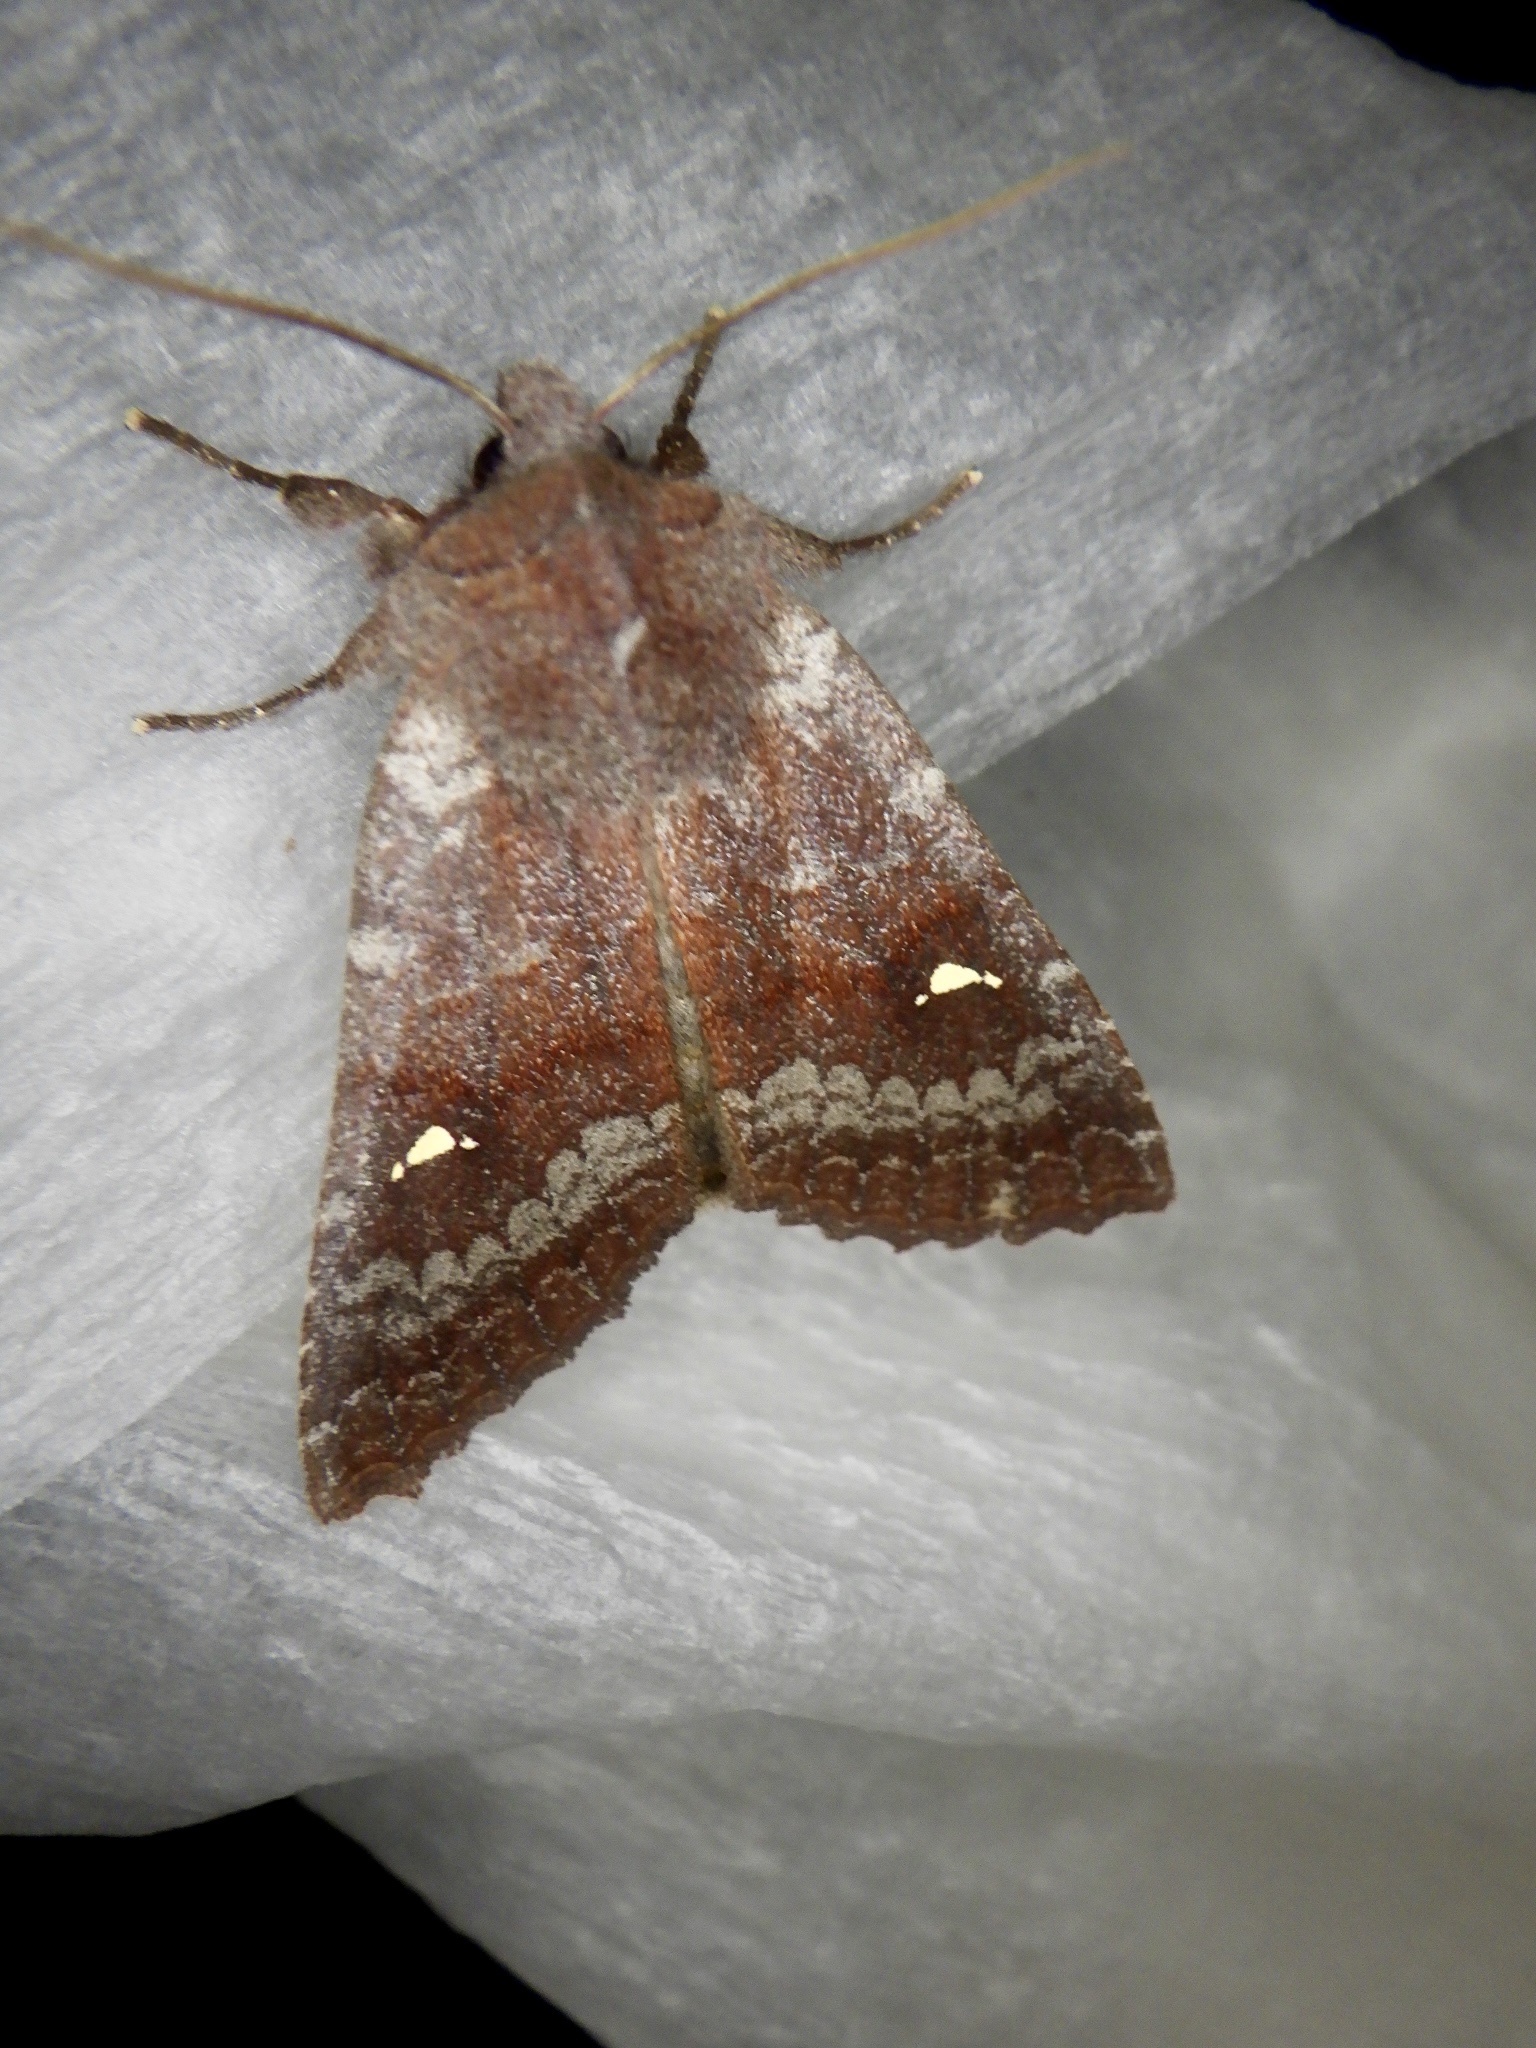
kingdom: Animalia
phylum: Arthropoda
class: Insecta
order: Lepidoptera
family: Noctuidae
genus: Eupsilia
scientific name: Eupsilia unipuncta
